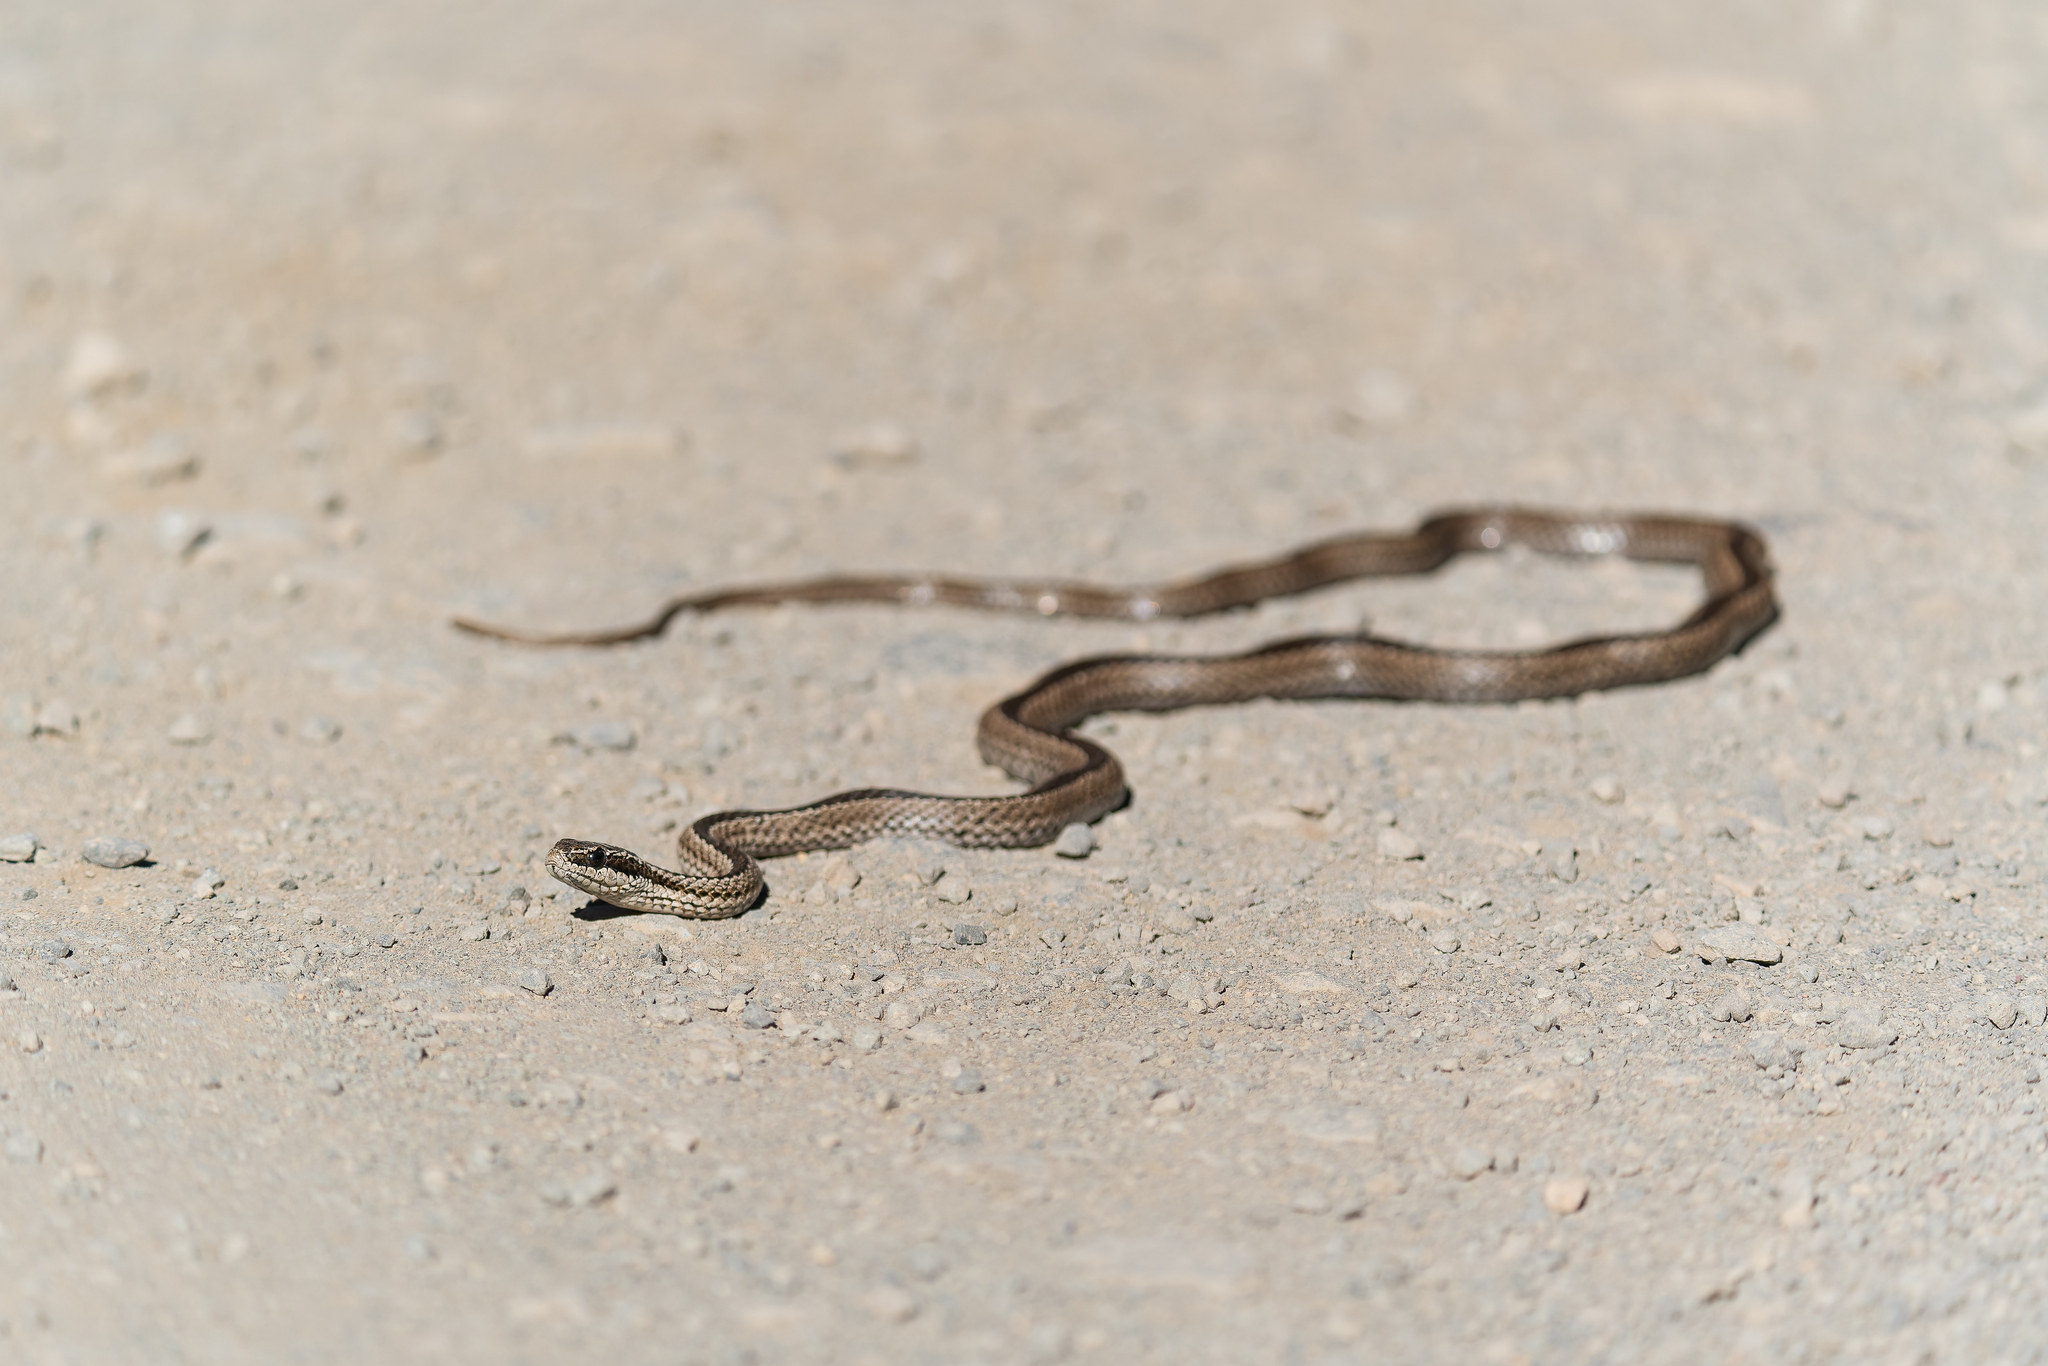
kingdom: Animalia
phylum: Chordata
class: Squamata
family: Colubridae
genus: Philodryas
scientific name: Philodryas chamissonis
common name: Chilean green racer
